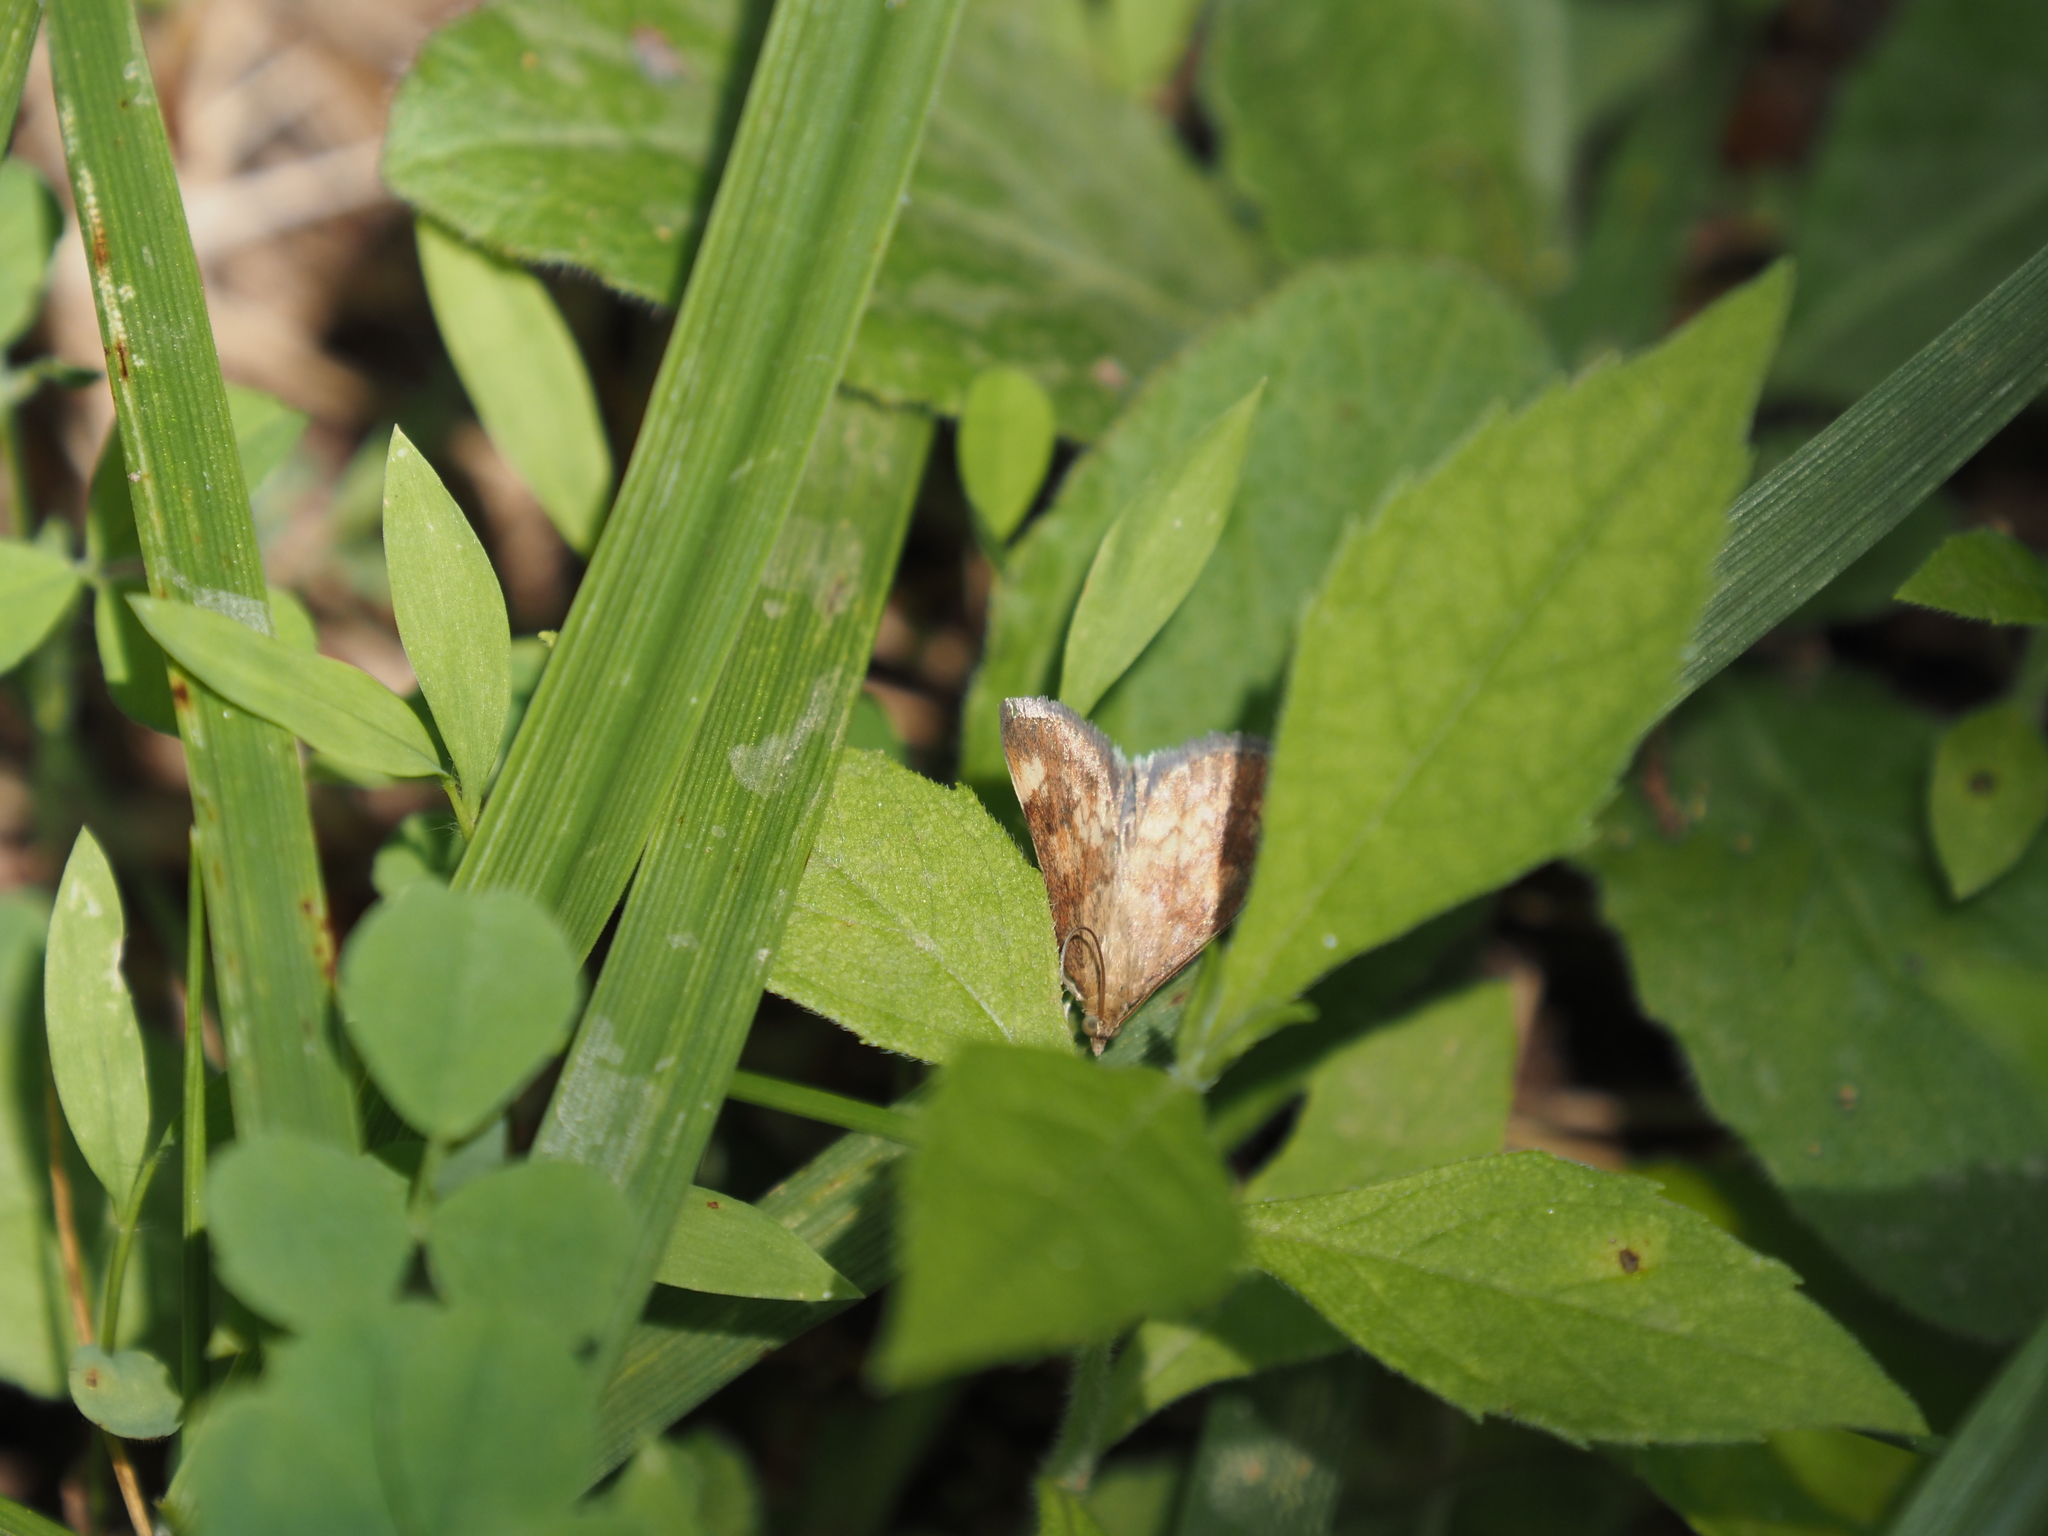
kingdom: Animalia
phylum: Arthropoda
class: Insecta
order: Lepidoptera
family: Crambidae
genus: Pyrausta
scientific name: Pyrausta homonymalis
